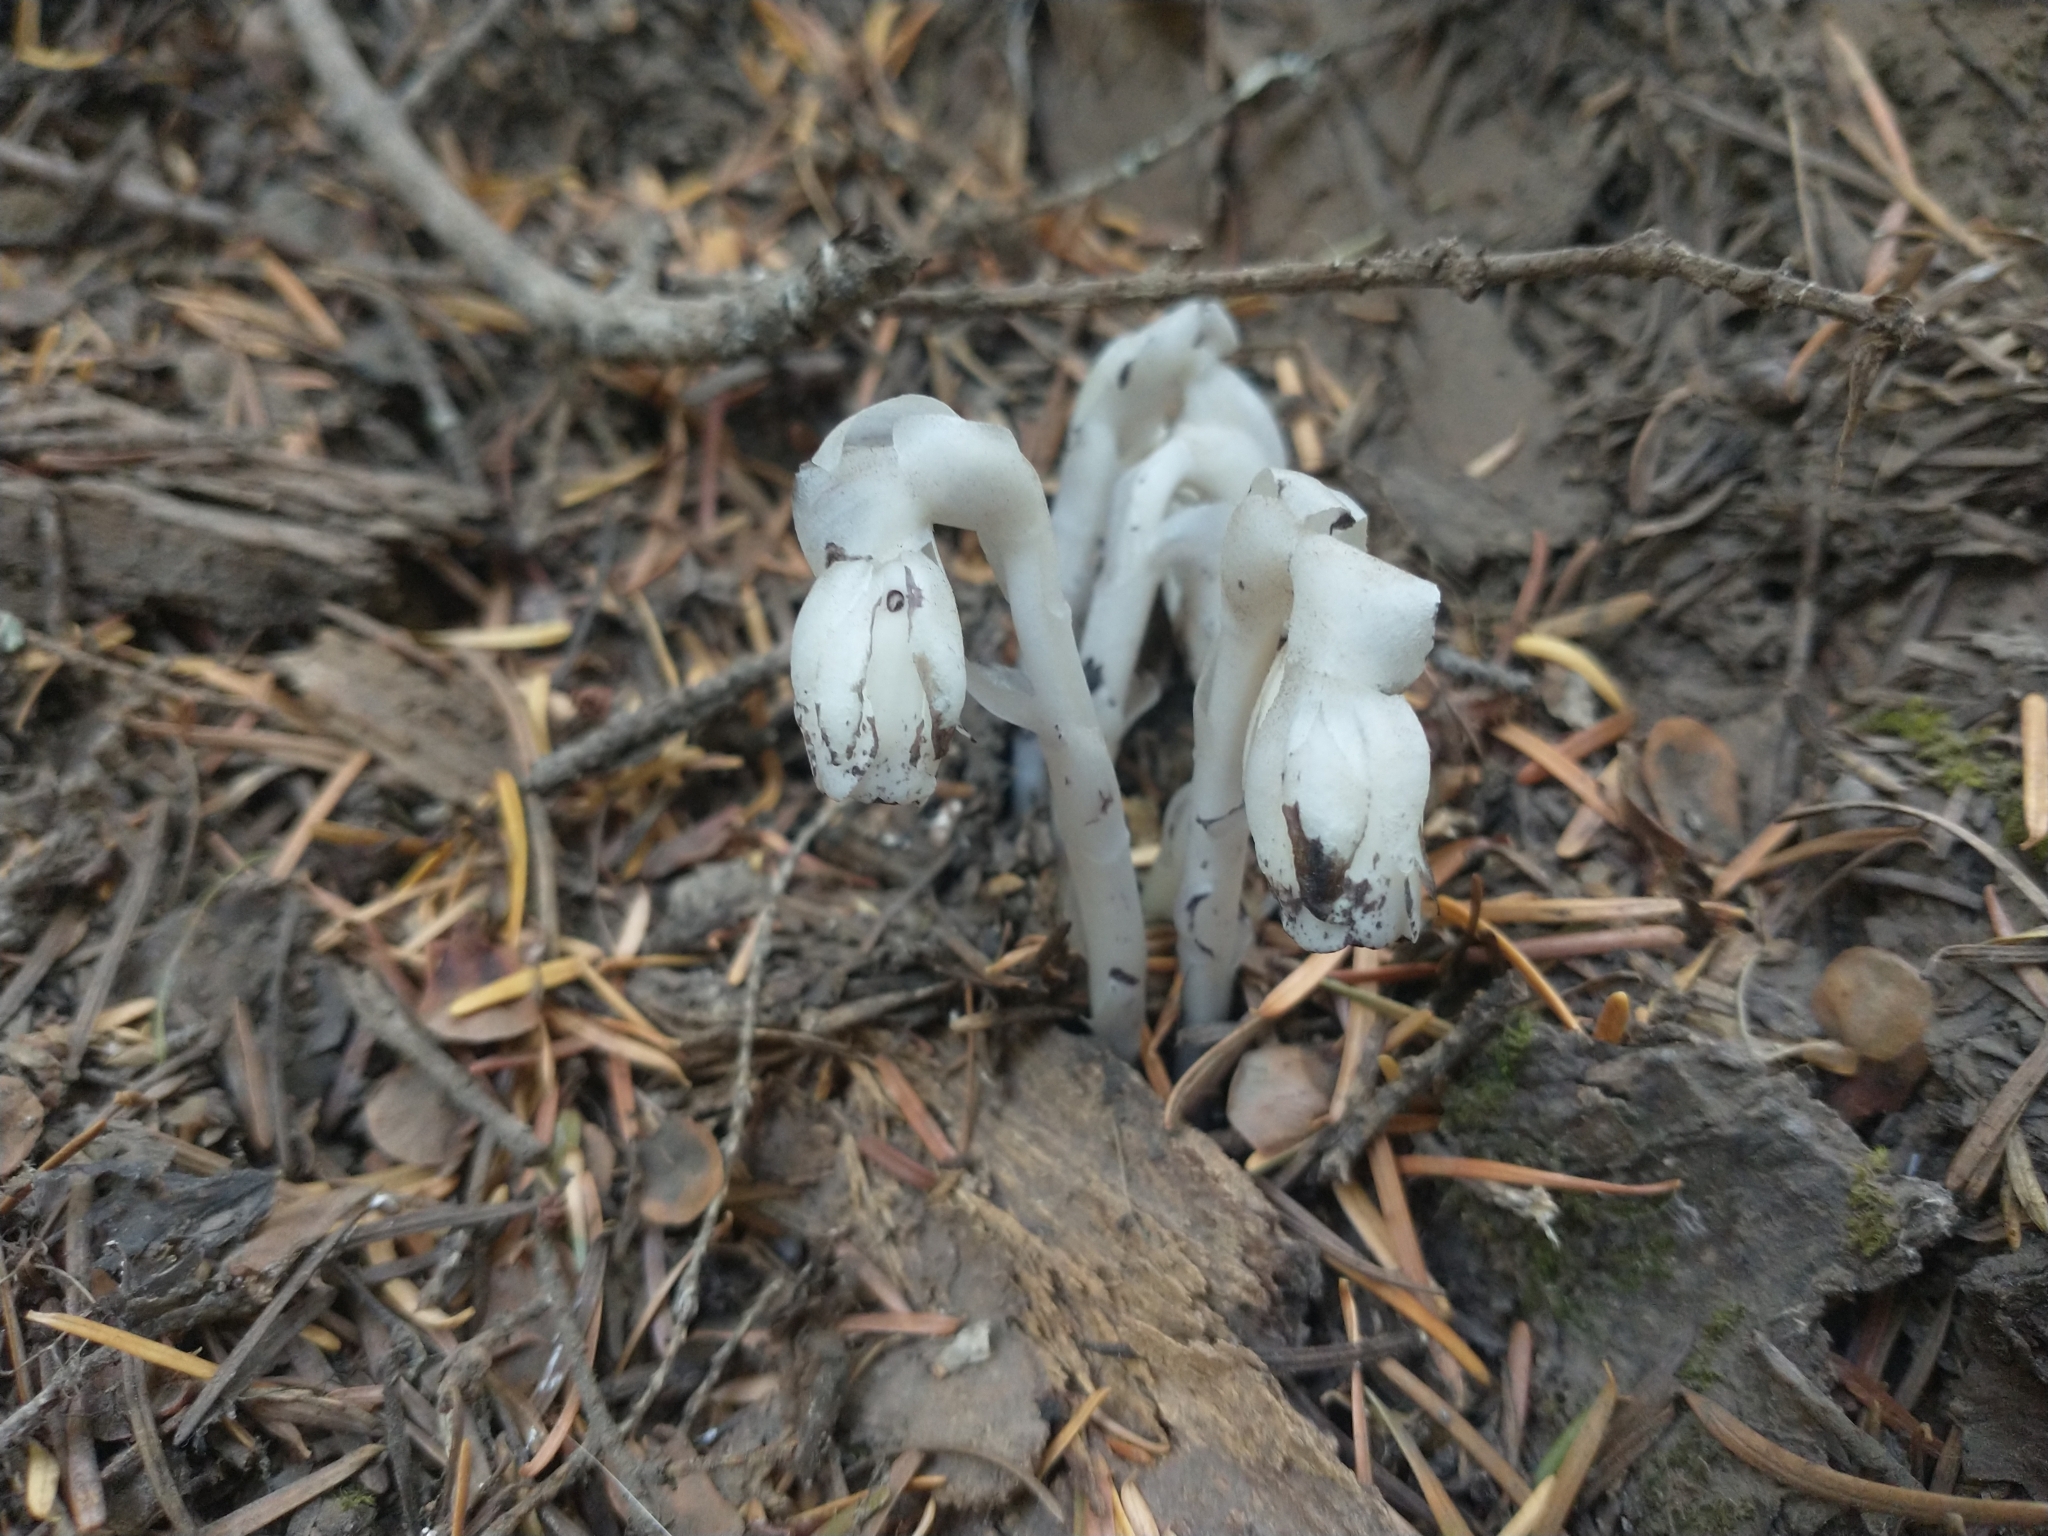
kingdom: Plantae
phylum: Tracheophyta
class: Magnoliopsida
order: Ericales
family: Ericaceae
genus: Monotropa
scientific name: Monotropa uniflora
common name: Convulsion root
